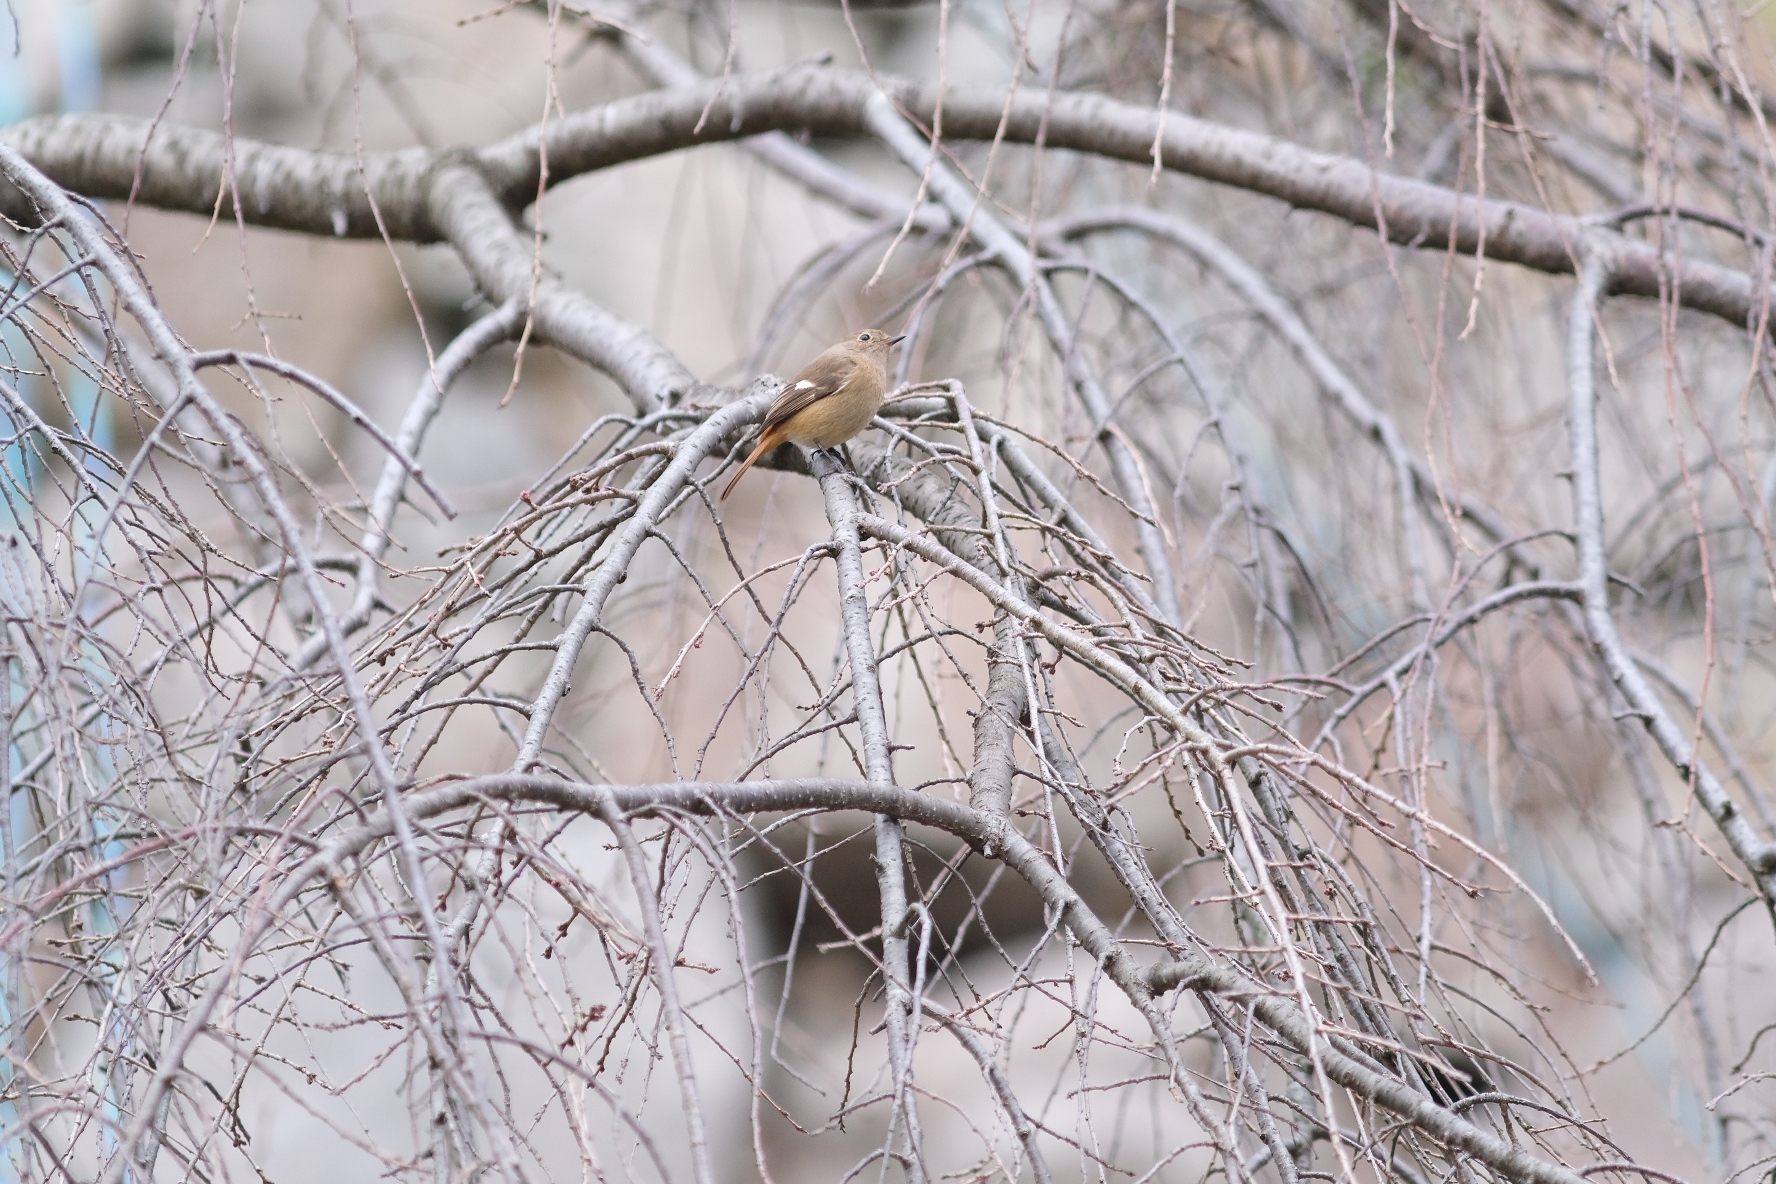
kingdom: Animalia
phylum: Chordata
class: Aves
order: Passeriformes
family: Muscicapidae
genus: Phoenicurus
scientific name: Phoenicurus auroreus
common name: Daurian redstart
